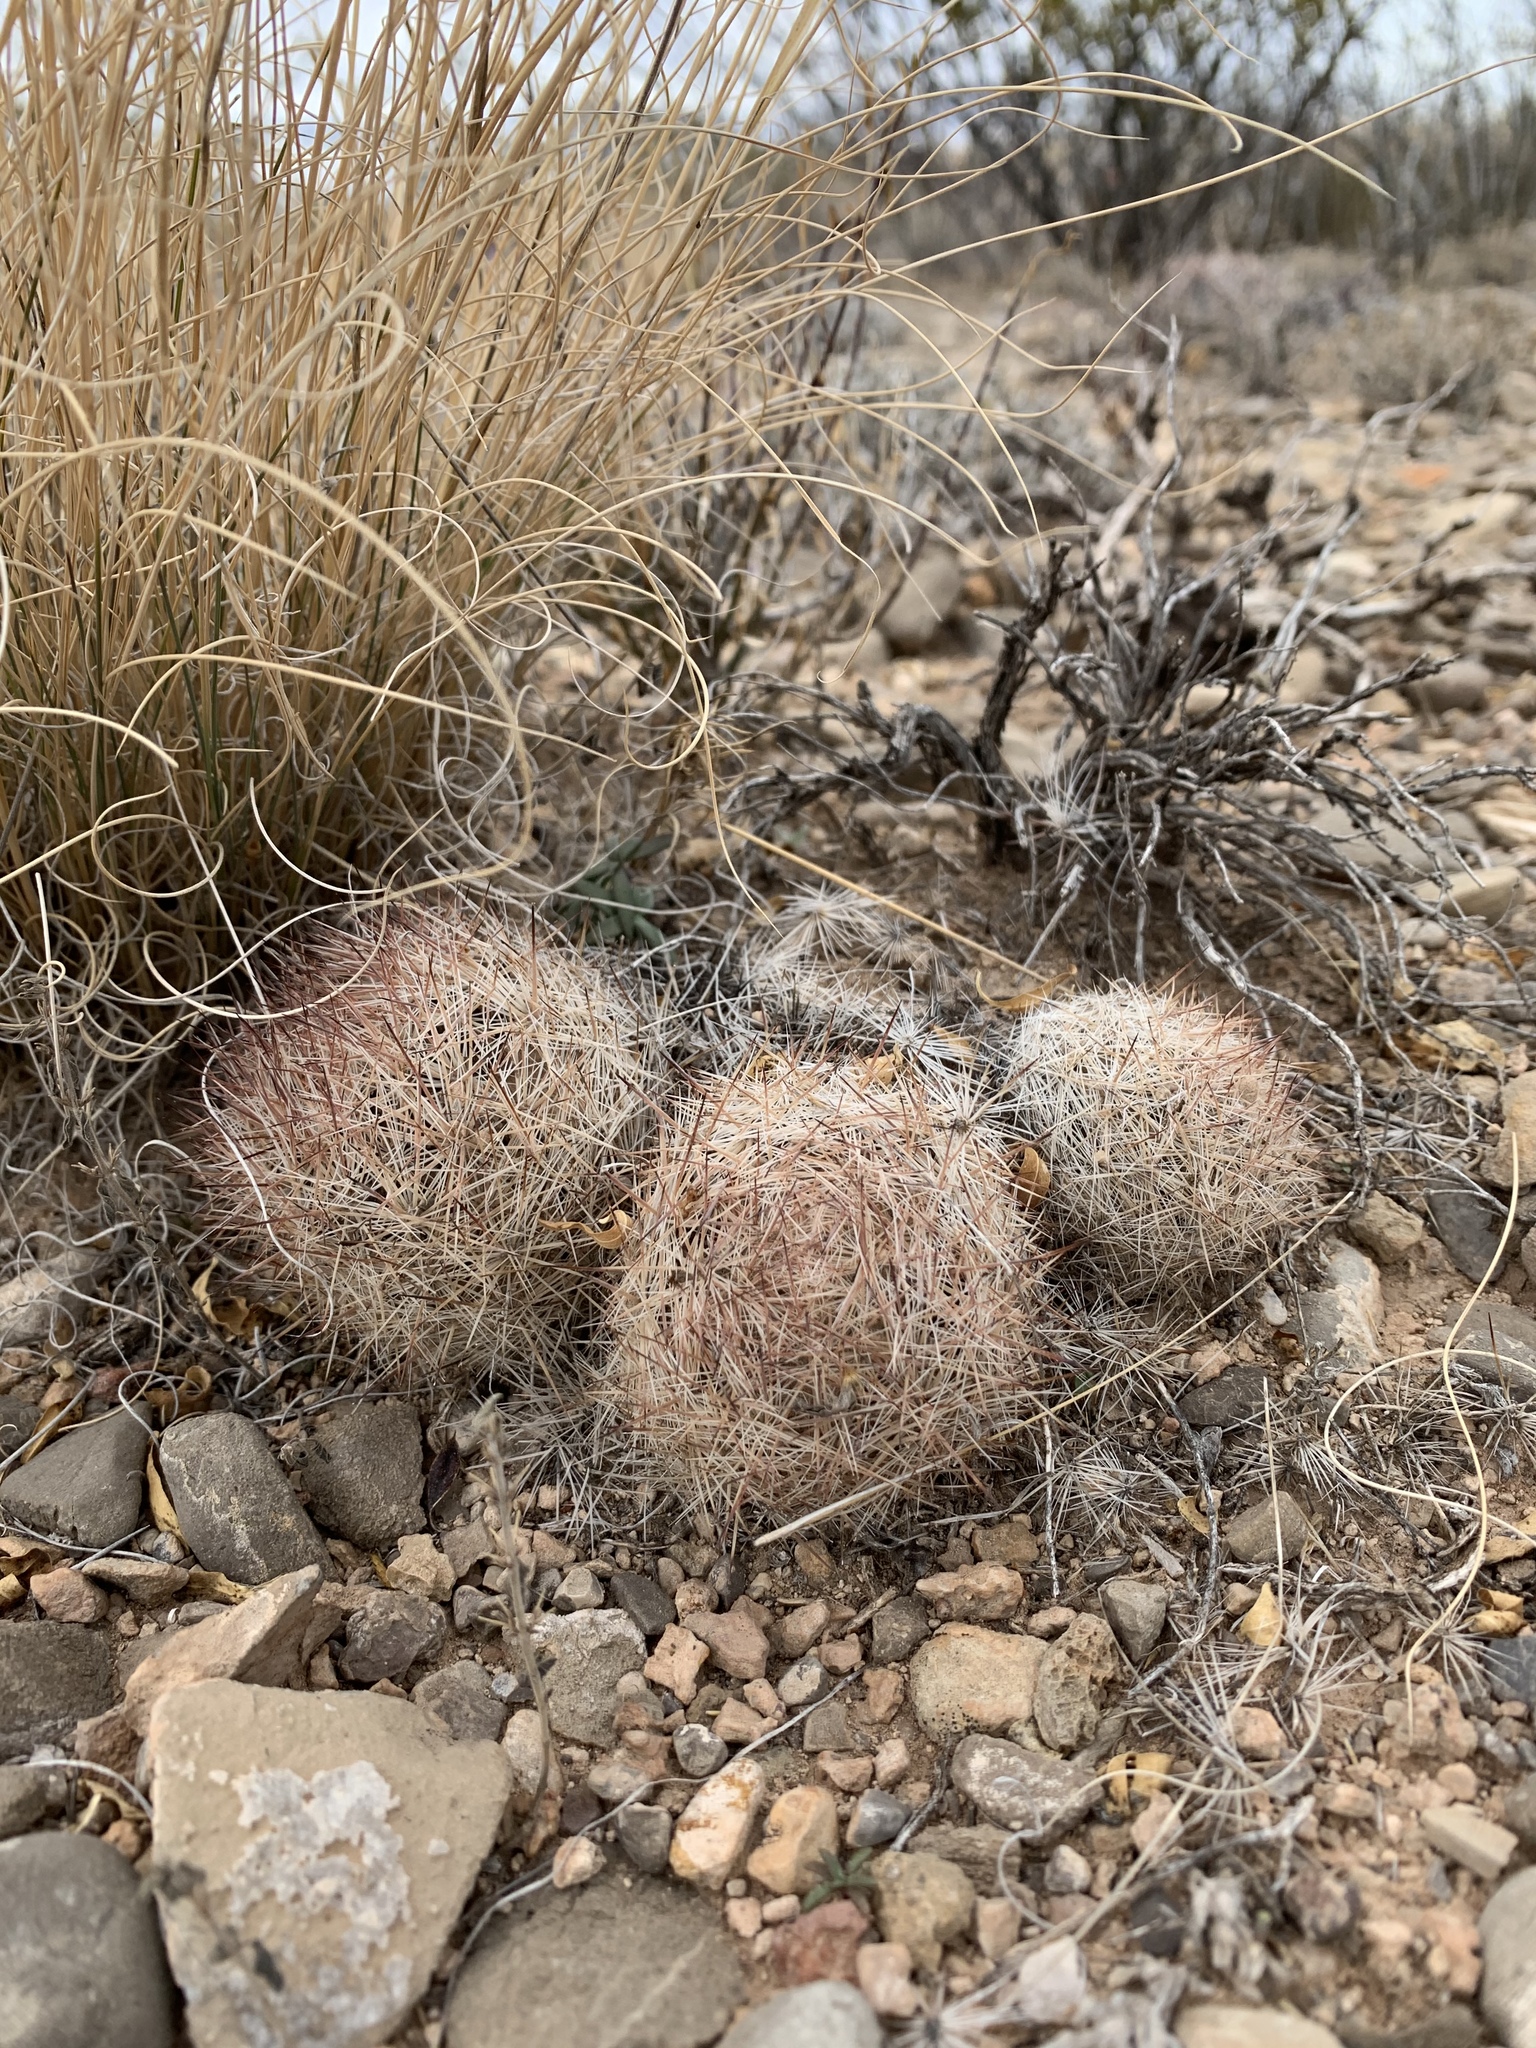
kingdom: Plantae
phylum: Tracheophyta
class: Magnoliopsida
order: Caryophyllales
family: Cactaceae
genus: Pelecyphora
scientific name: Pelecyphora vivipara
